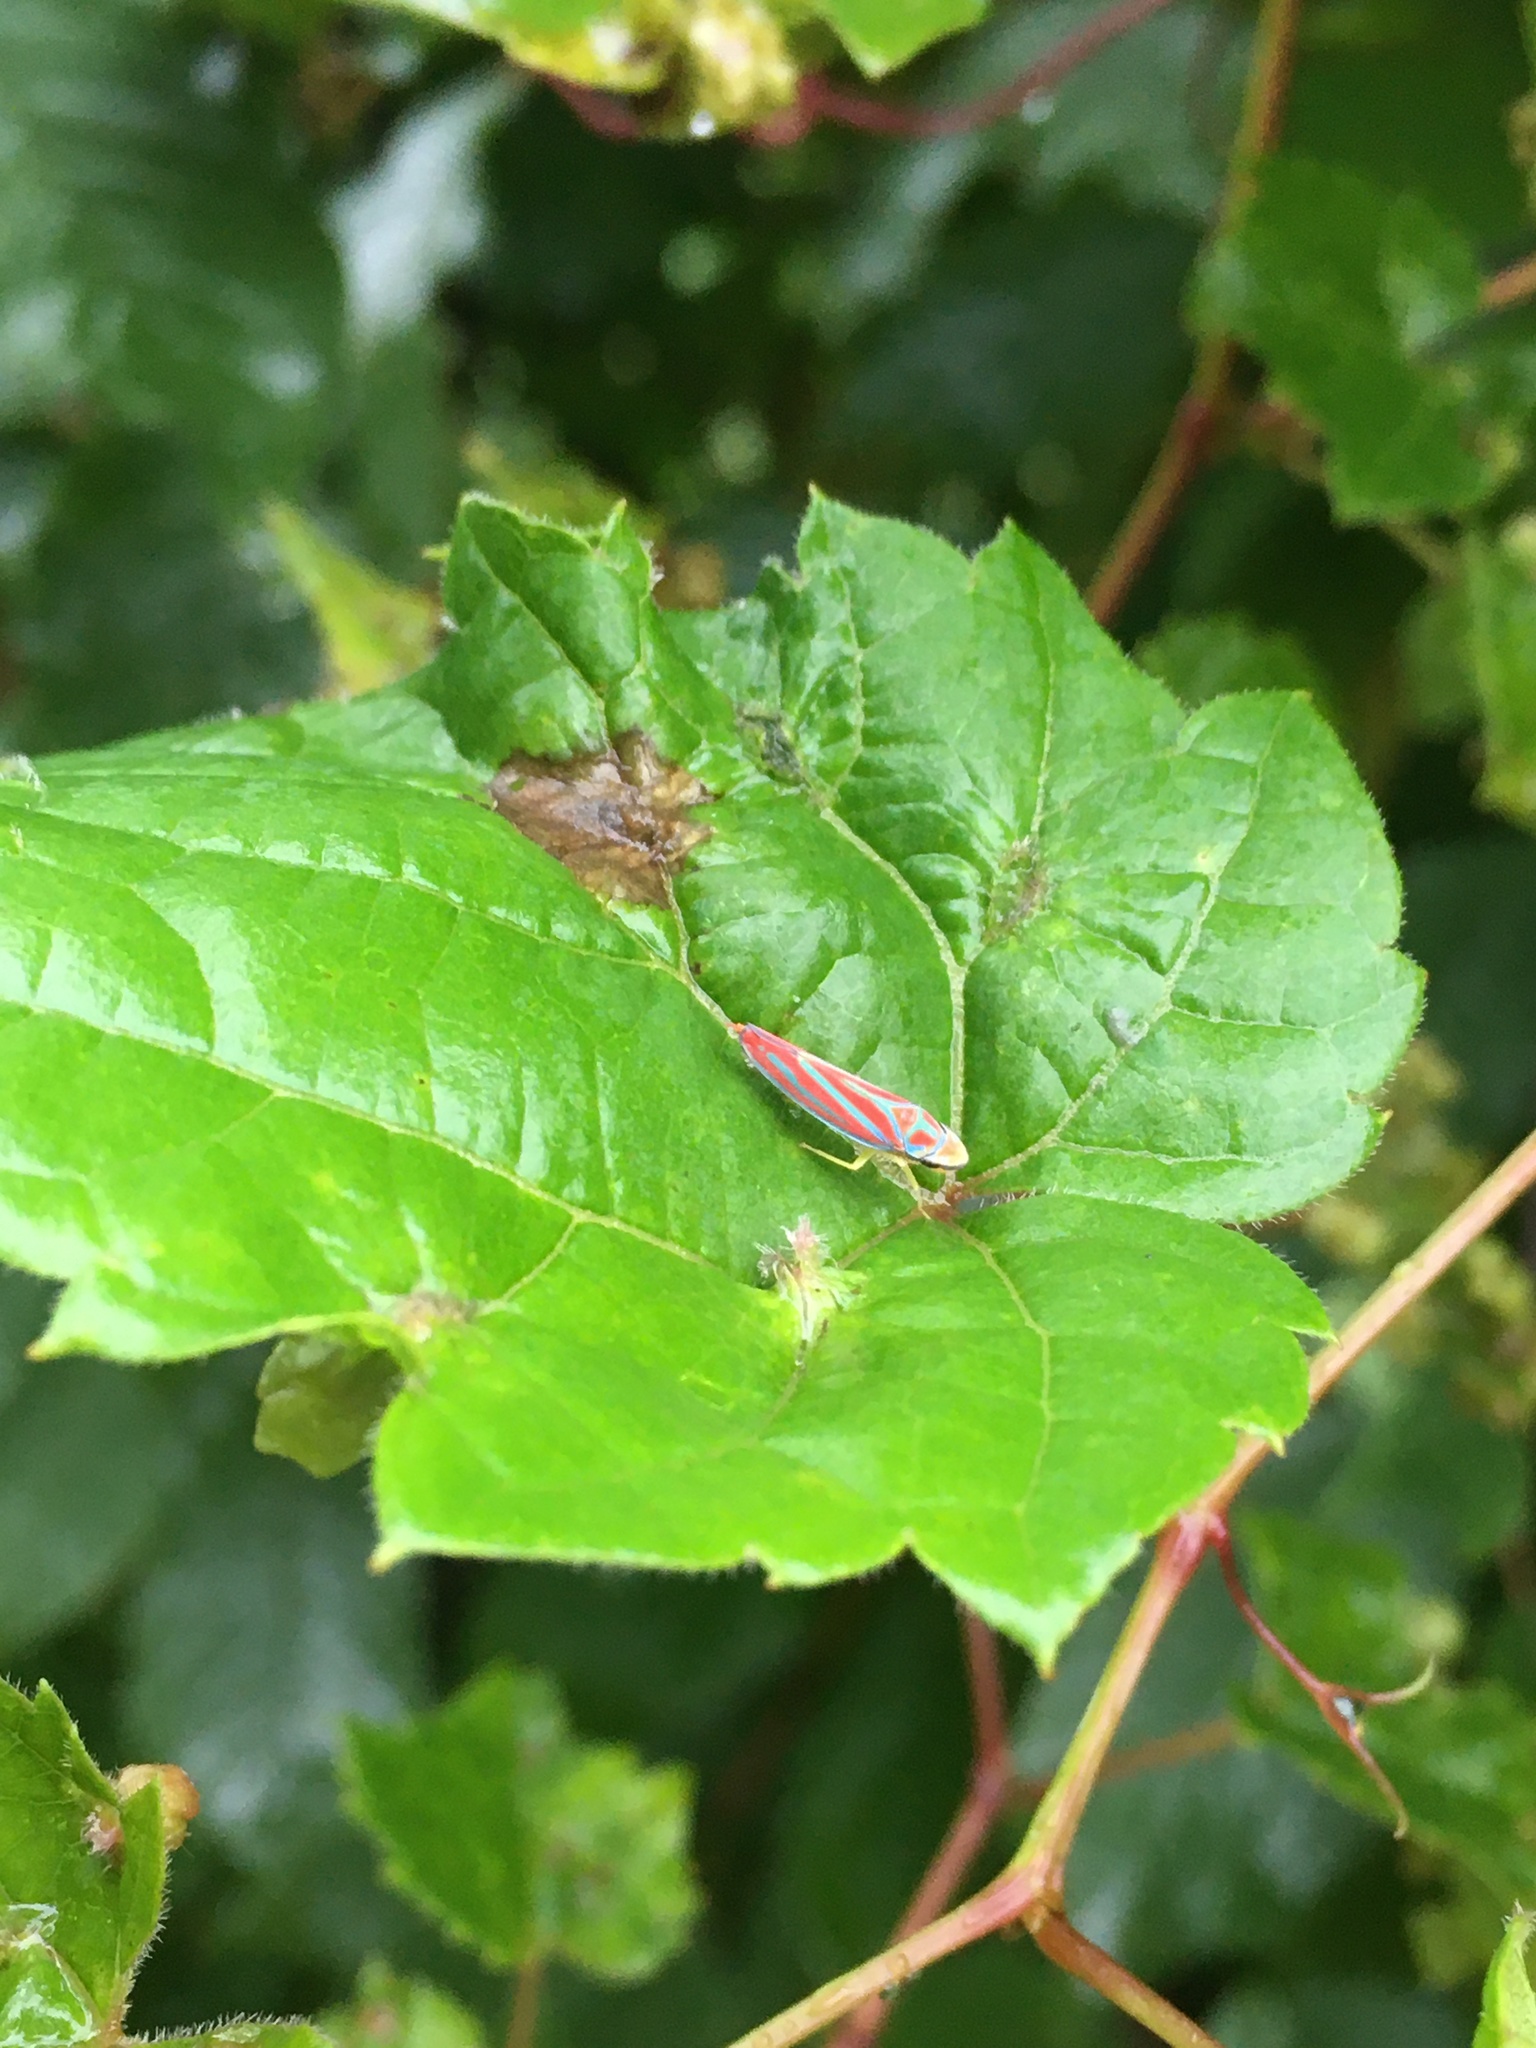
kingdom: Animalia
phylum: Arthropoda
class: Insecta
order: Hemiptera
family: Cicadellidae
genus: Graphocephala
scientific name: Graphocephala coccinea
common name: Candy-striped leafhopper
